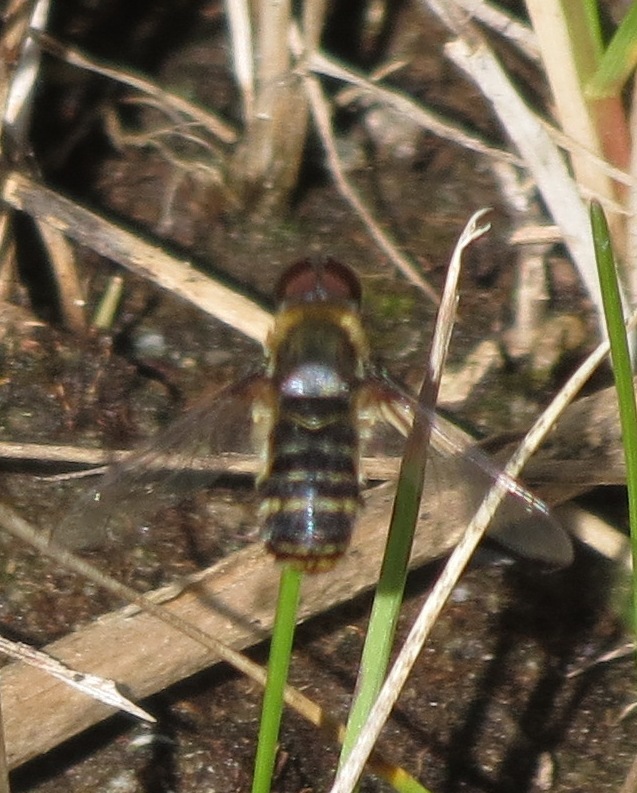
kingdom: Animalia
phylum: Arthropoda
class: Insecta
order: Diptera
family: Bombyliidae
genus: Villa
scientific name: Villa
